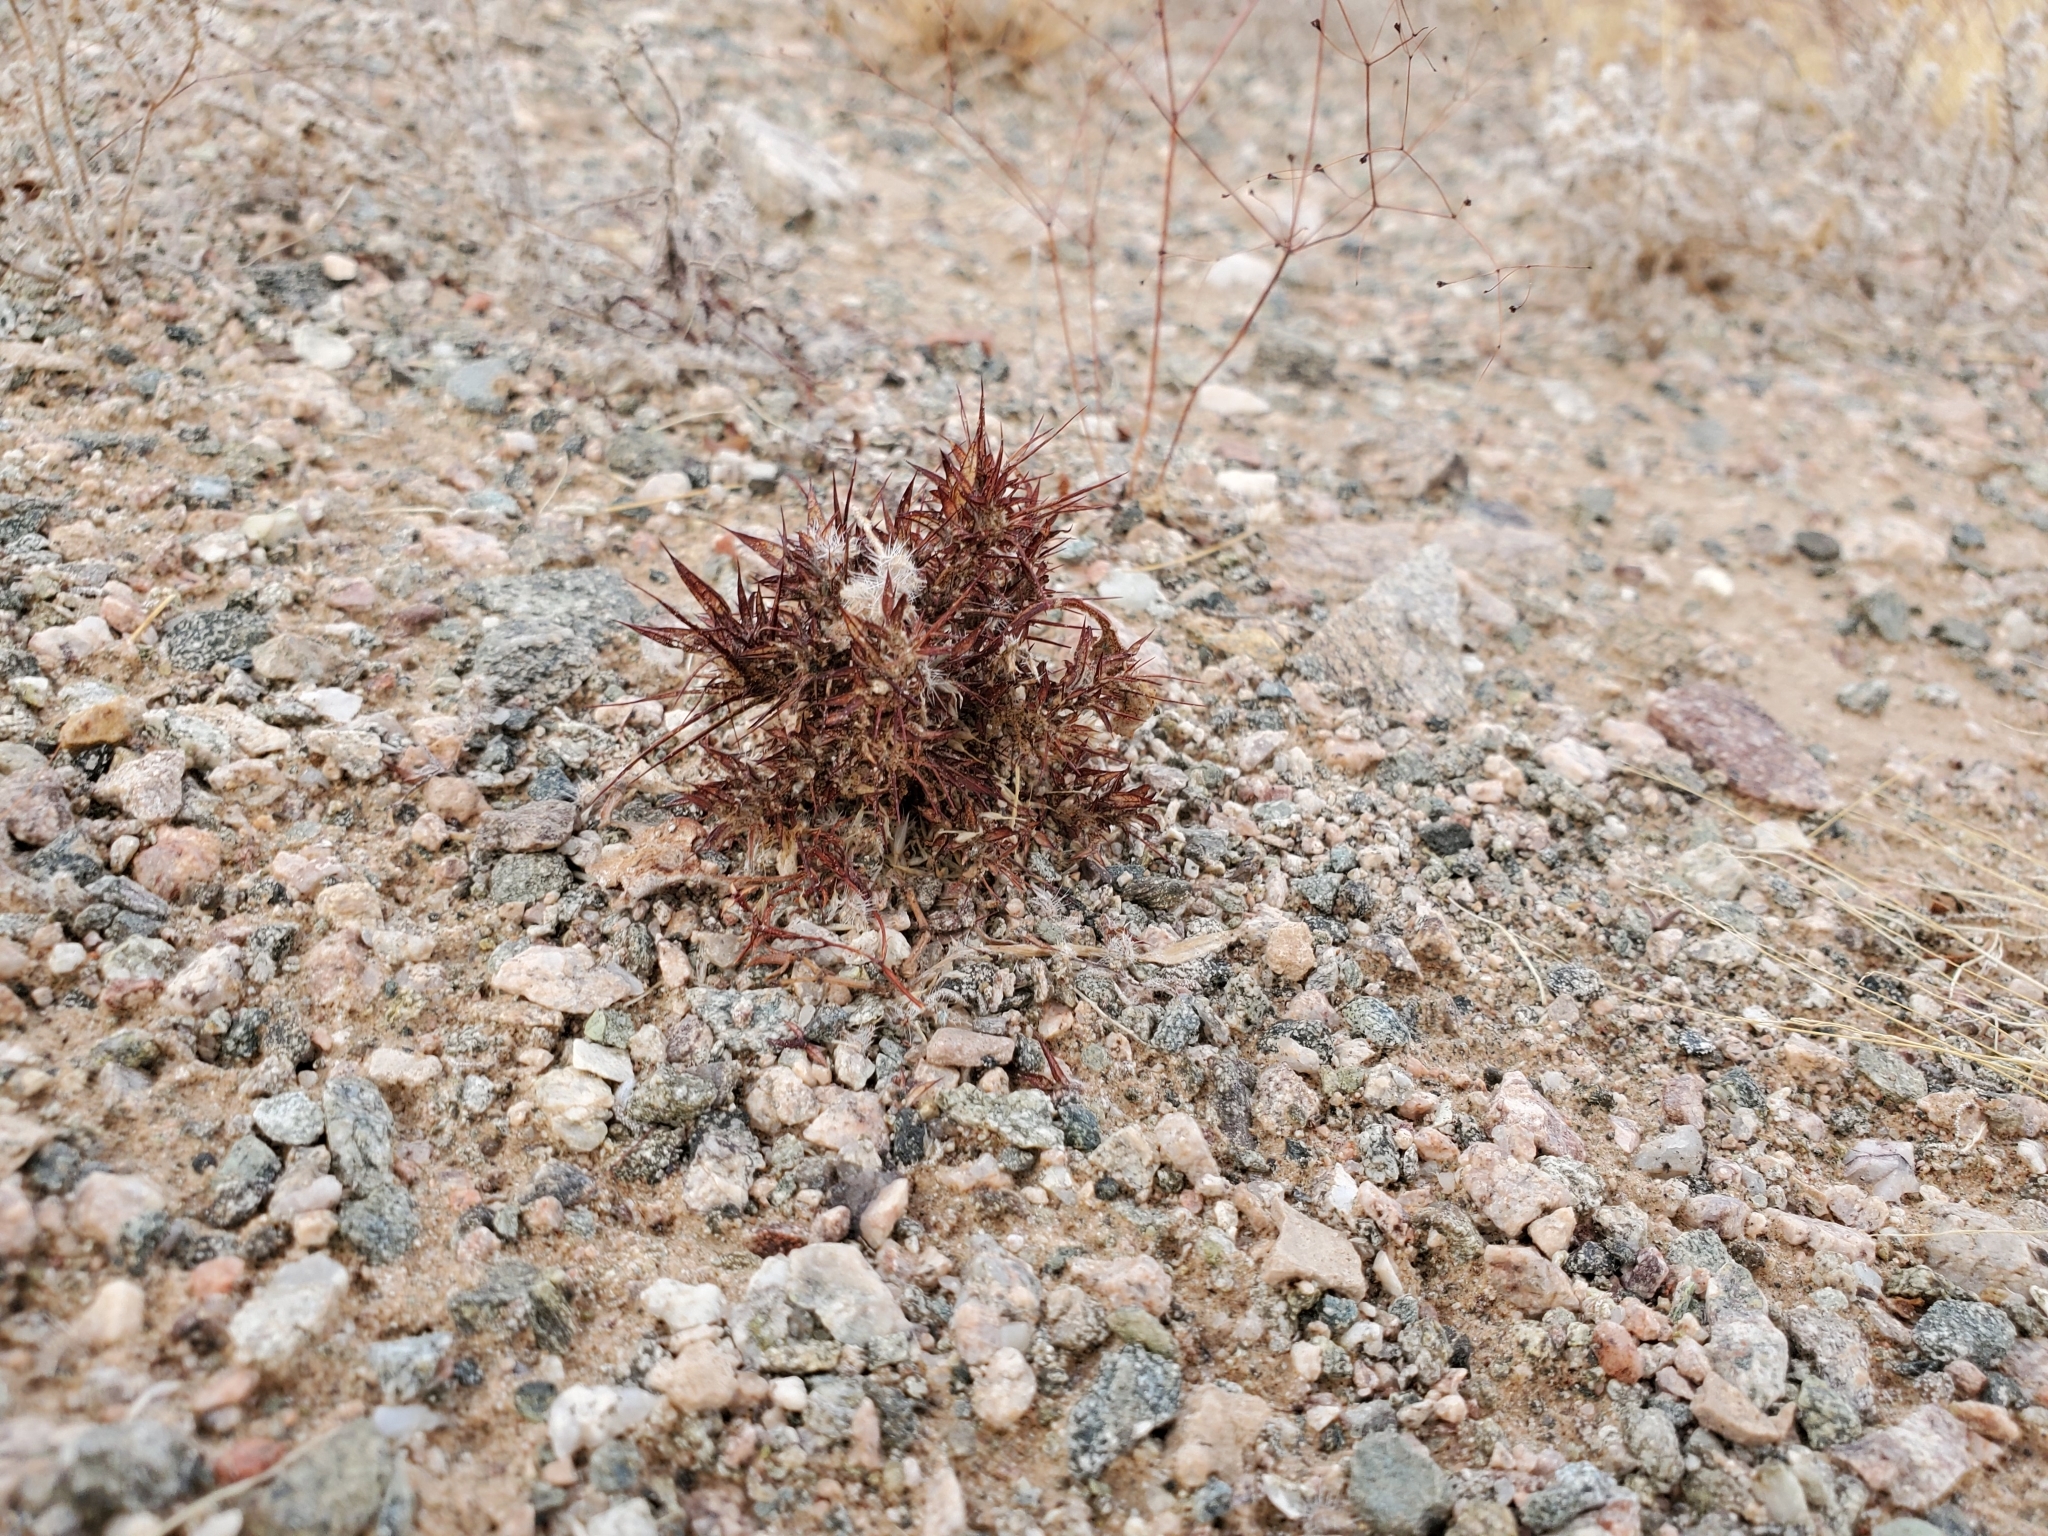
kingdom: Plantae
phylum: Tracheophyta
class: Magnoliopsida
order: Caryophyllales
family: Polygonaceae
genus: Chorizanthe
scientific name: Chorizanthe rigida
